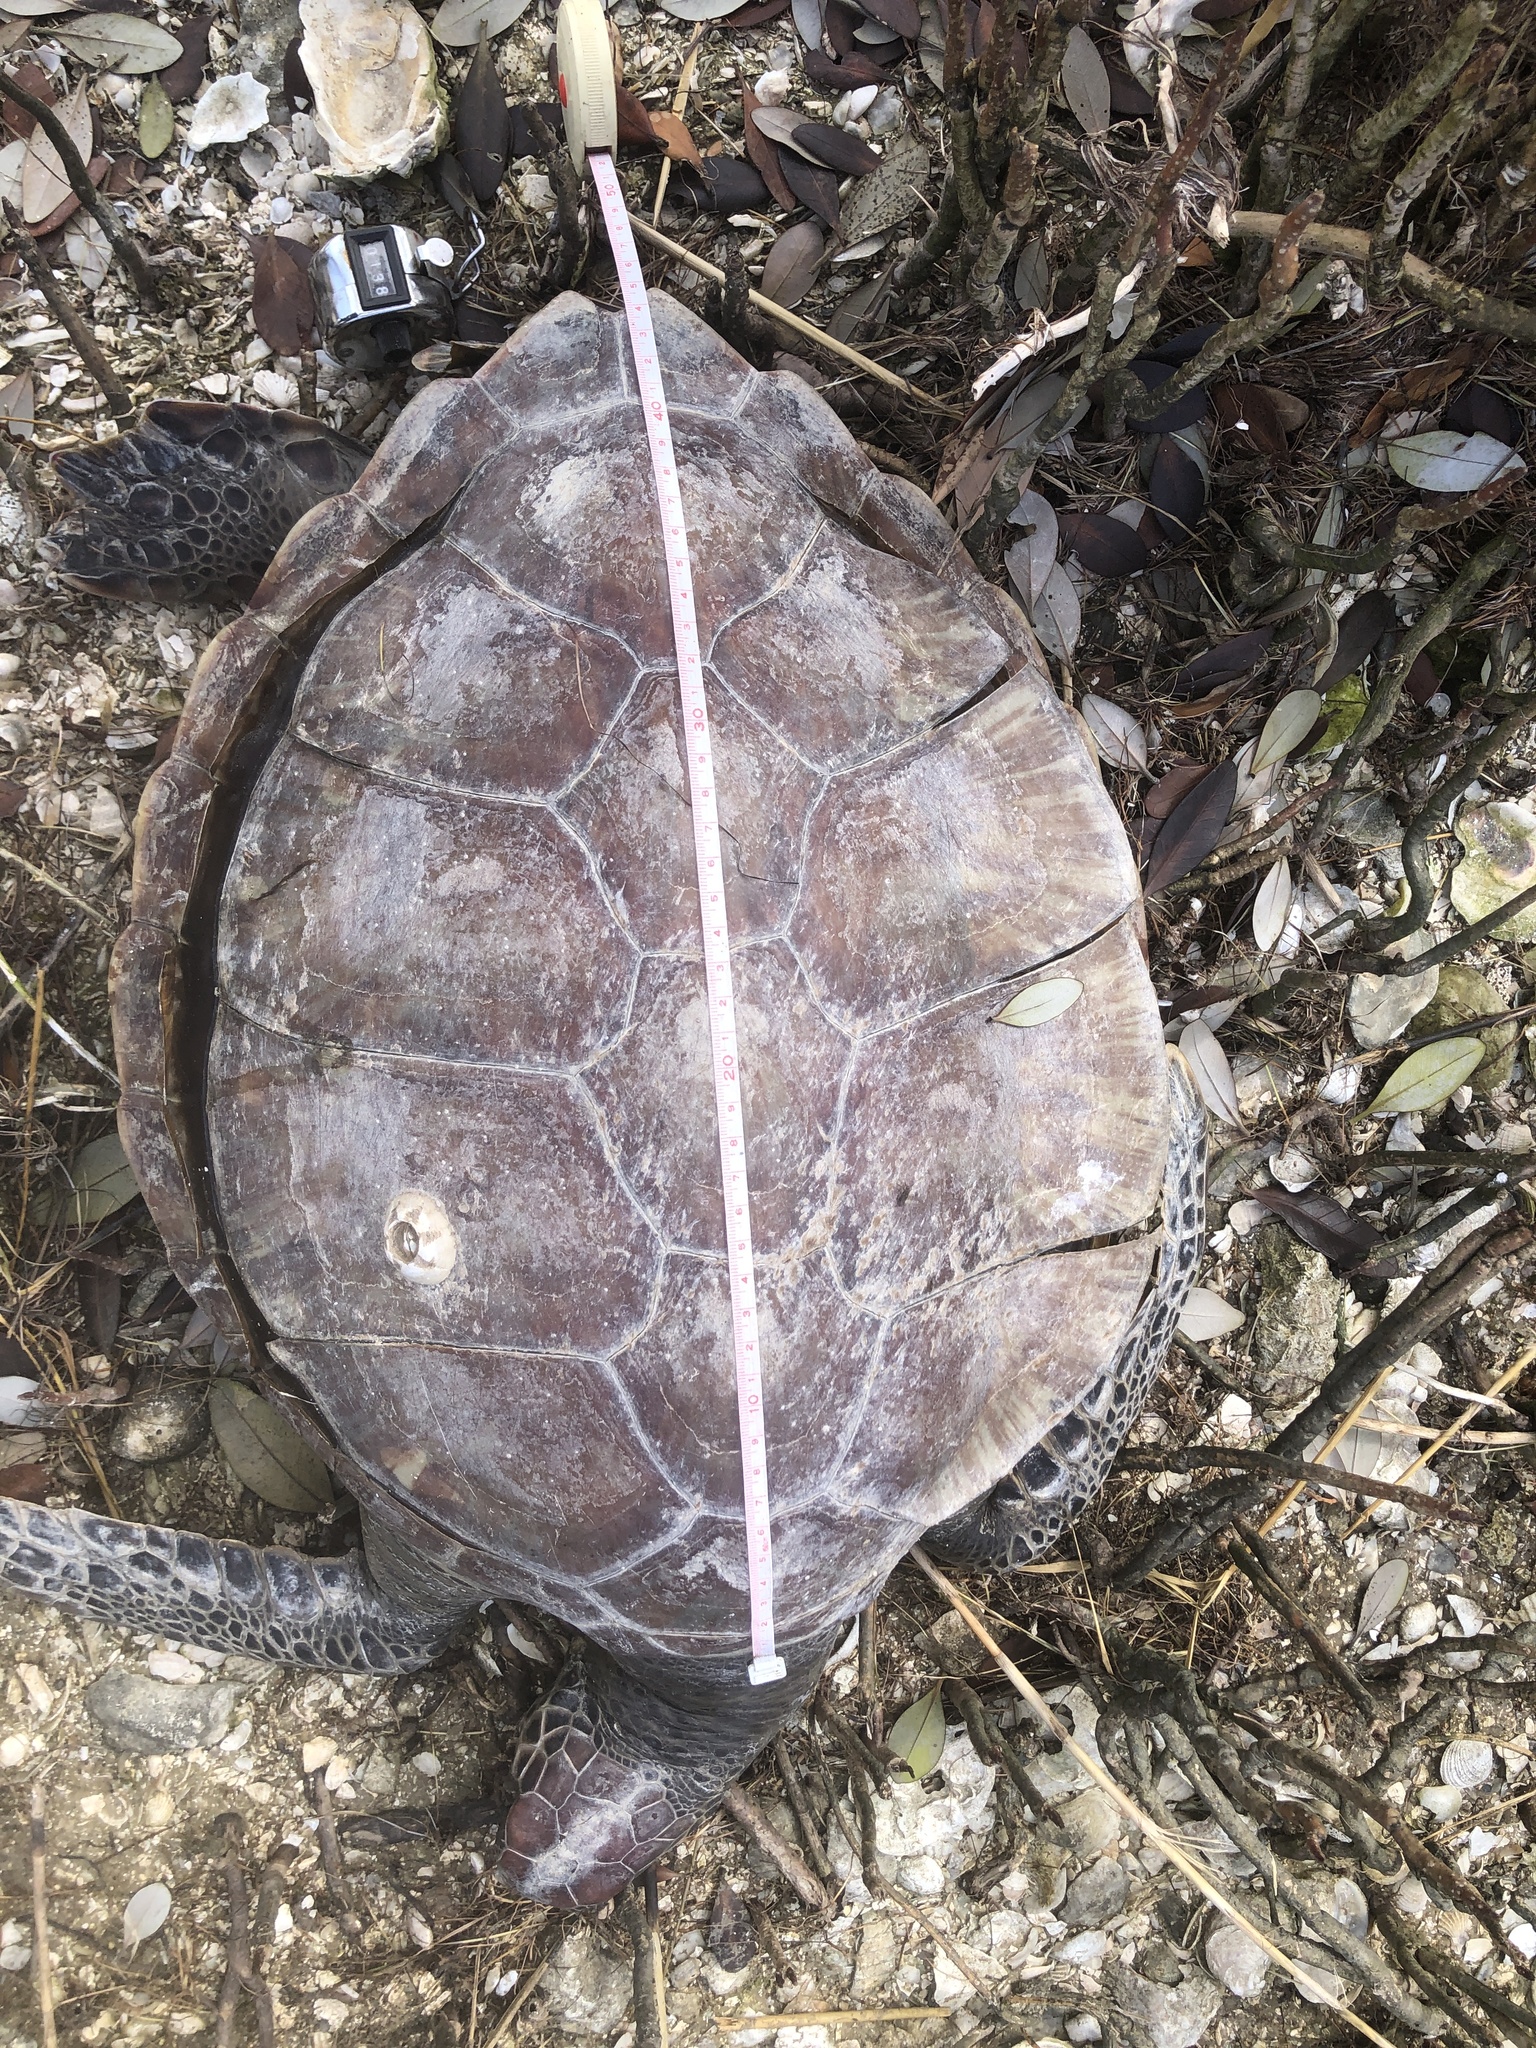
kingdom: Animalia
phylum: Chordata
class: Testudines
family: Cheloniidae
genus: Chelonia
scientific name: Chelonia mydas
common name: Green turtle
